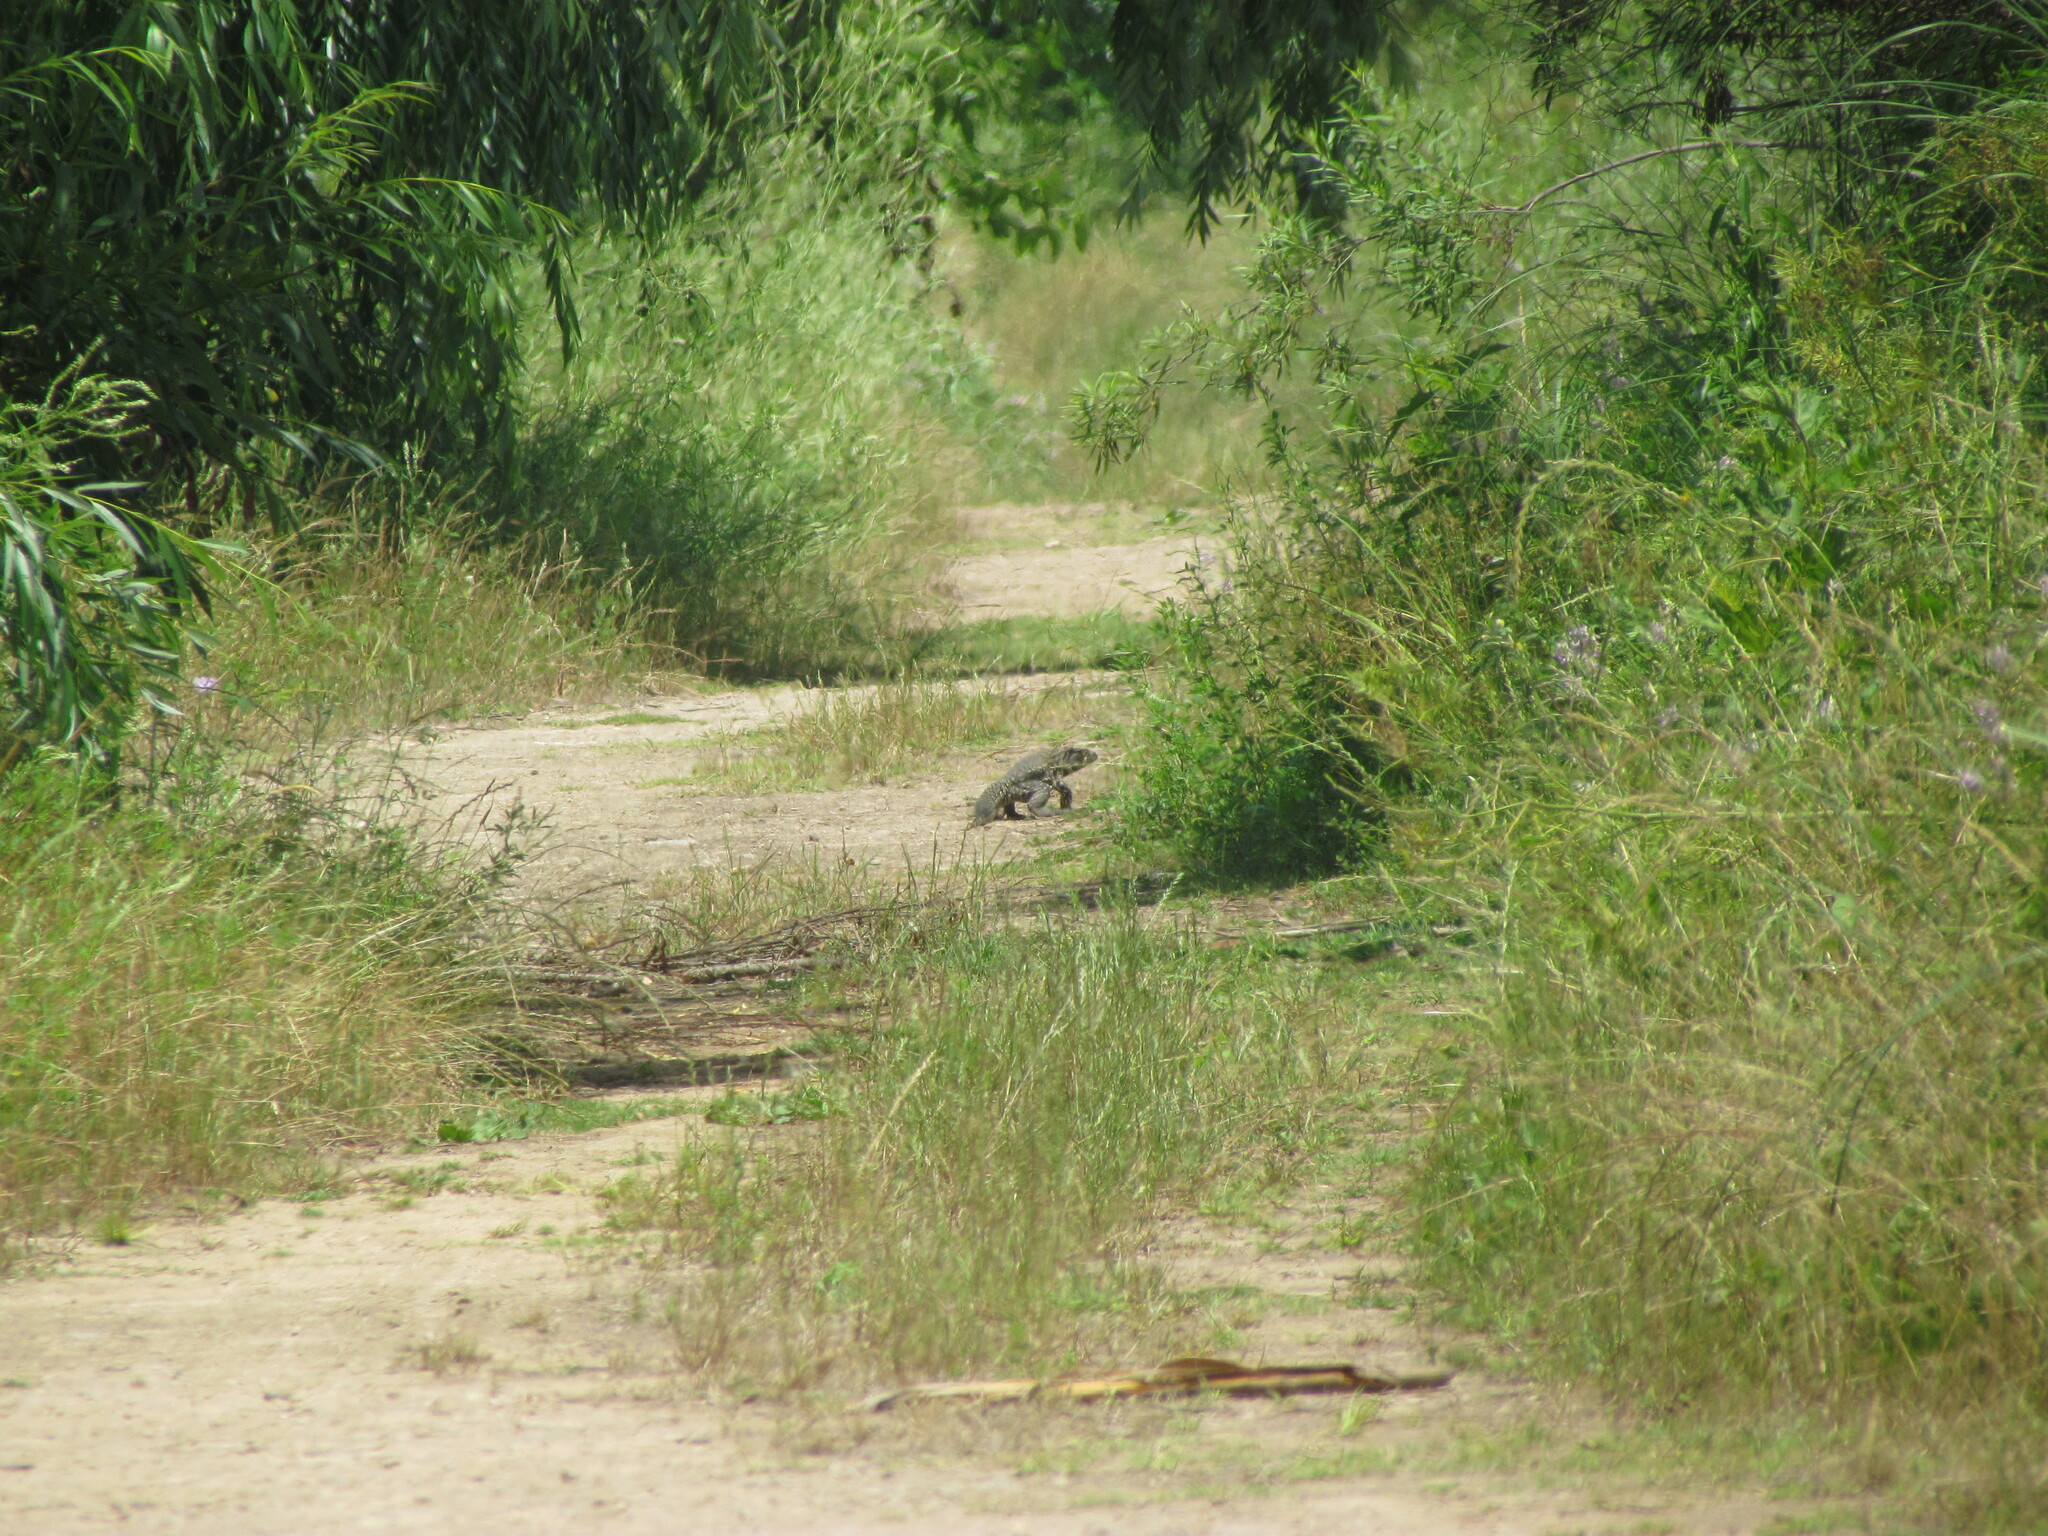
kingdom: Animalia
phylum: Chordata
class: Squamata
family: Teiidae
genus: Salvator
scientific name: Salvator merianae
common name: Argentine black and white tegu
